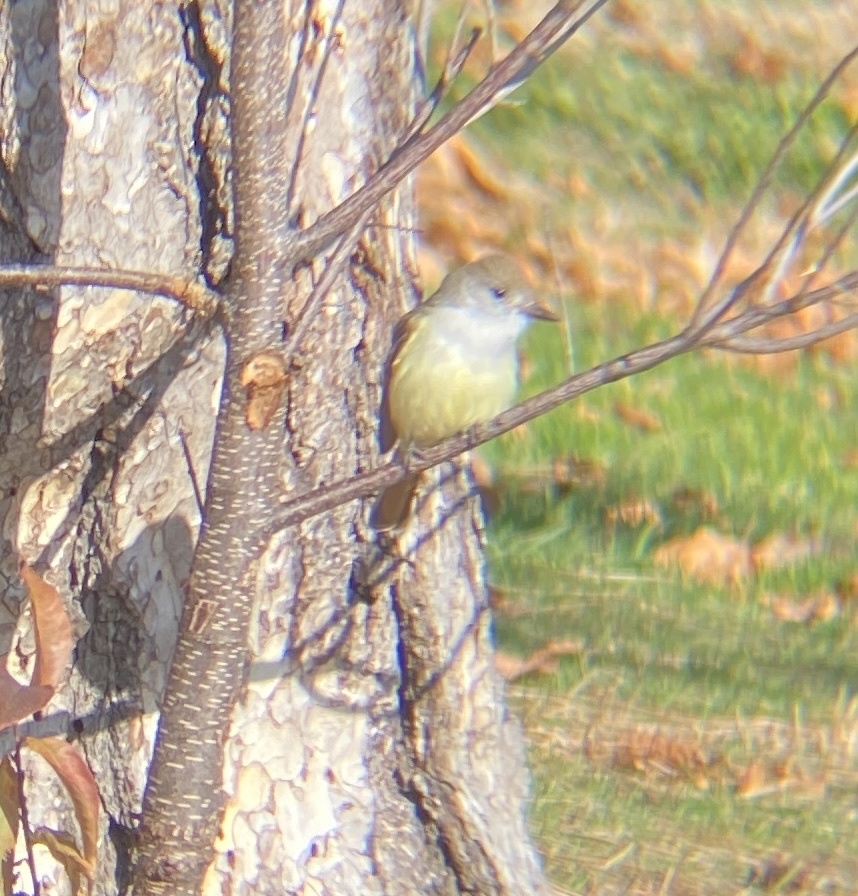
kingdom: Animalia
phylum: Chordata
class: Aves
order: Passeriformes
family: Tyrannidae
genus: Myiarchus
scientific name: Myiarchus cinerascens
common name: Ash-throated flycatcher
